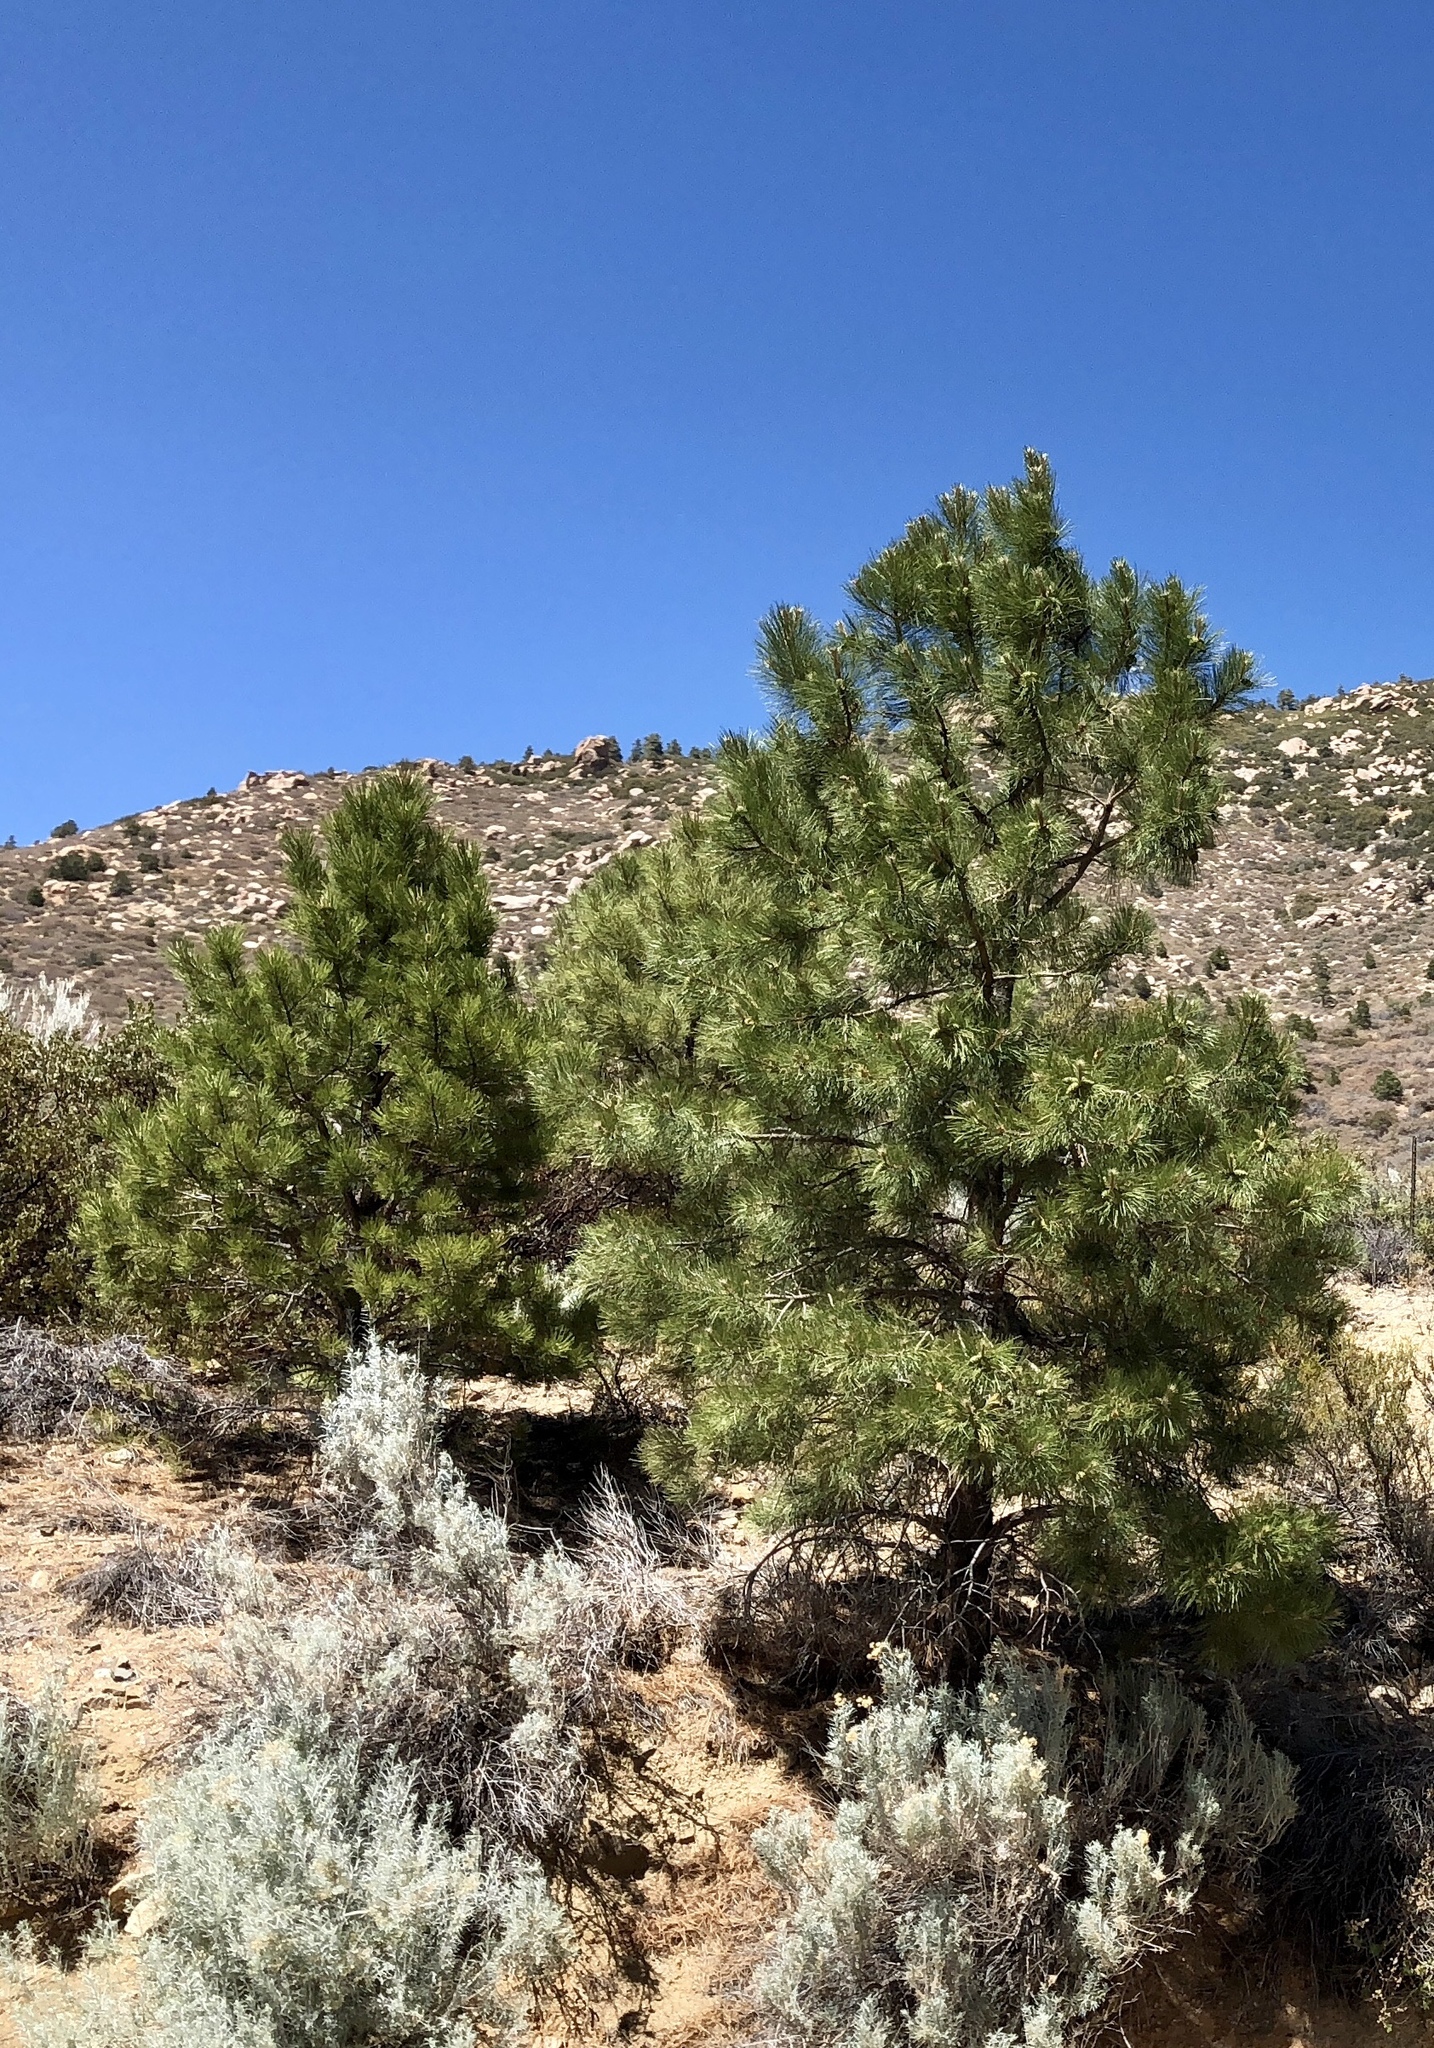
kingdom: Plantae
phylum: Tracheophyta
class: Pinopsida
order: Pinales
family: Pinaceae
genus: Pinus
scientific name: Pinus ponderosa
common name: Western yellow-pine
